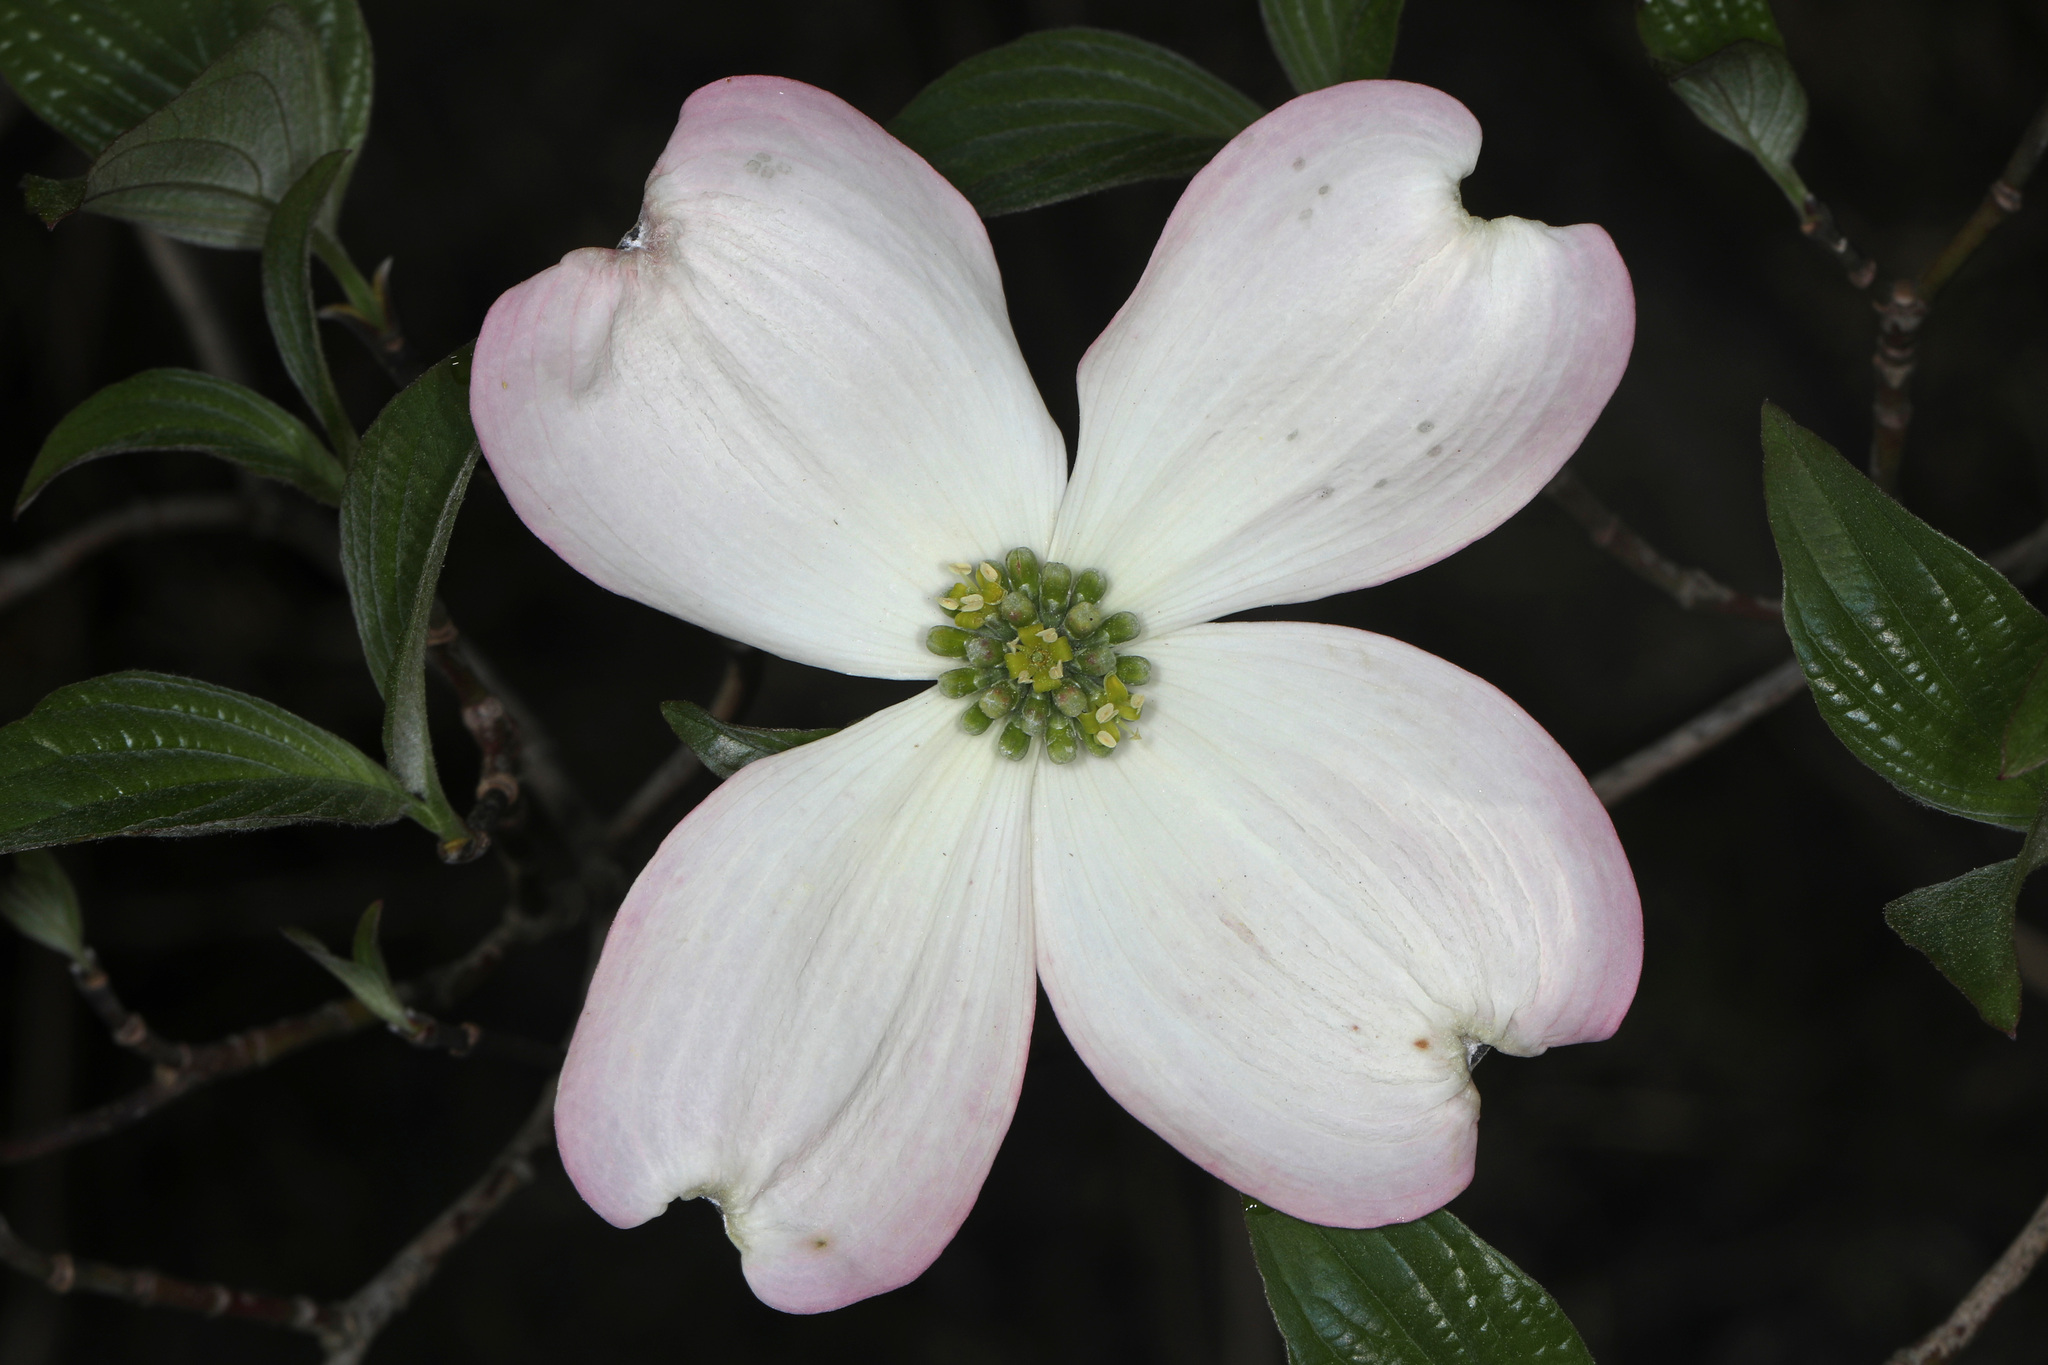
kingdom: Plantae
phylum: Tracheophyta
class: Magnoliopsida
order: Cornales
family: Cornaceae
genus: Cornus
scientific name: Cornus florida
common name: Flowering dogwood
